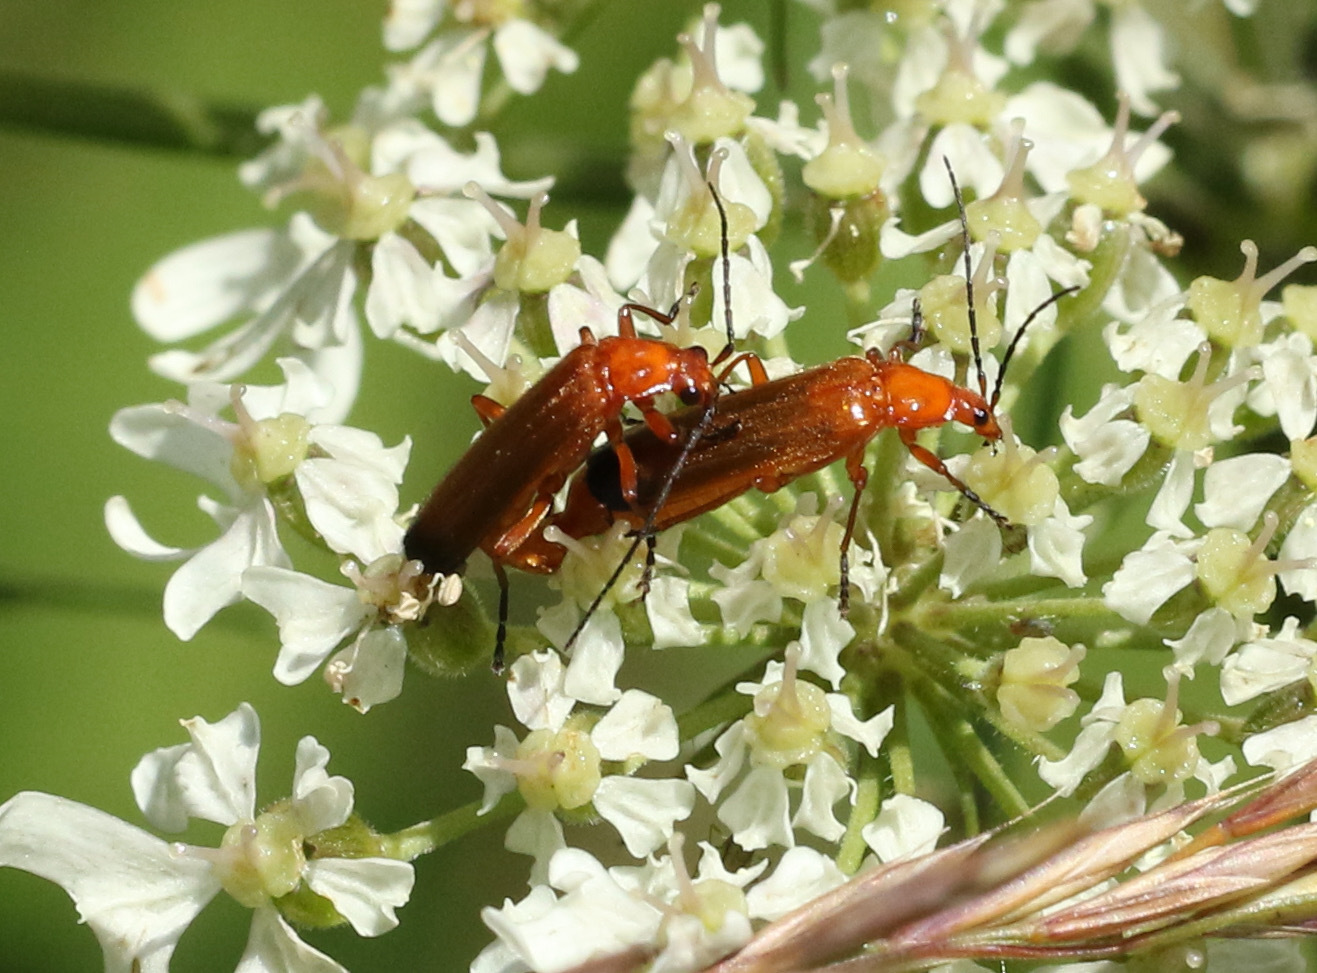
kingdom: Animalia
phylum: Arthropoda
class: Insecta
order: Coleoptera
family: Cantharidae
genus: Rhagonycha
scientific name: Rhagonycha fulva
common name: Common red soldier beetle
